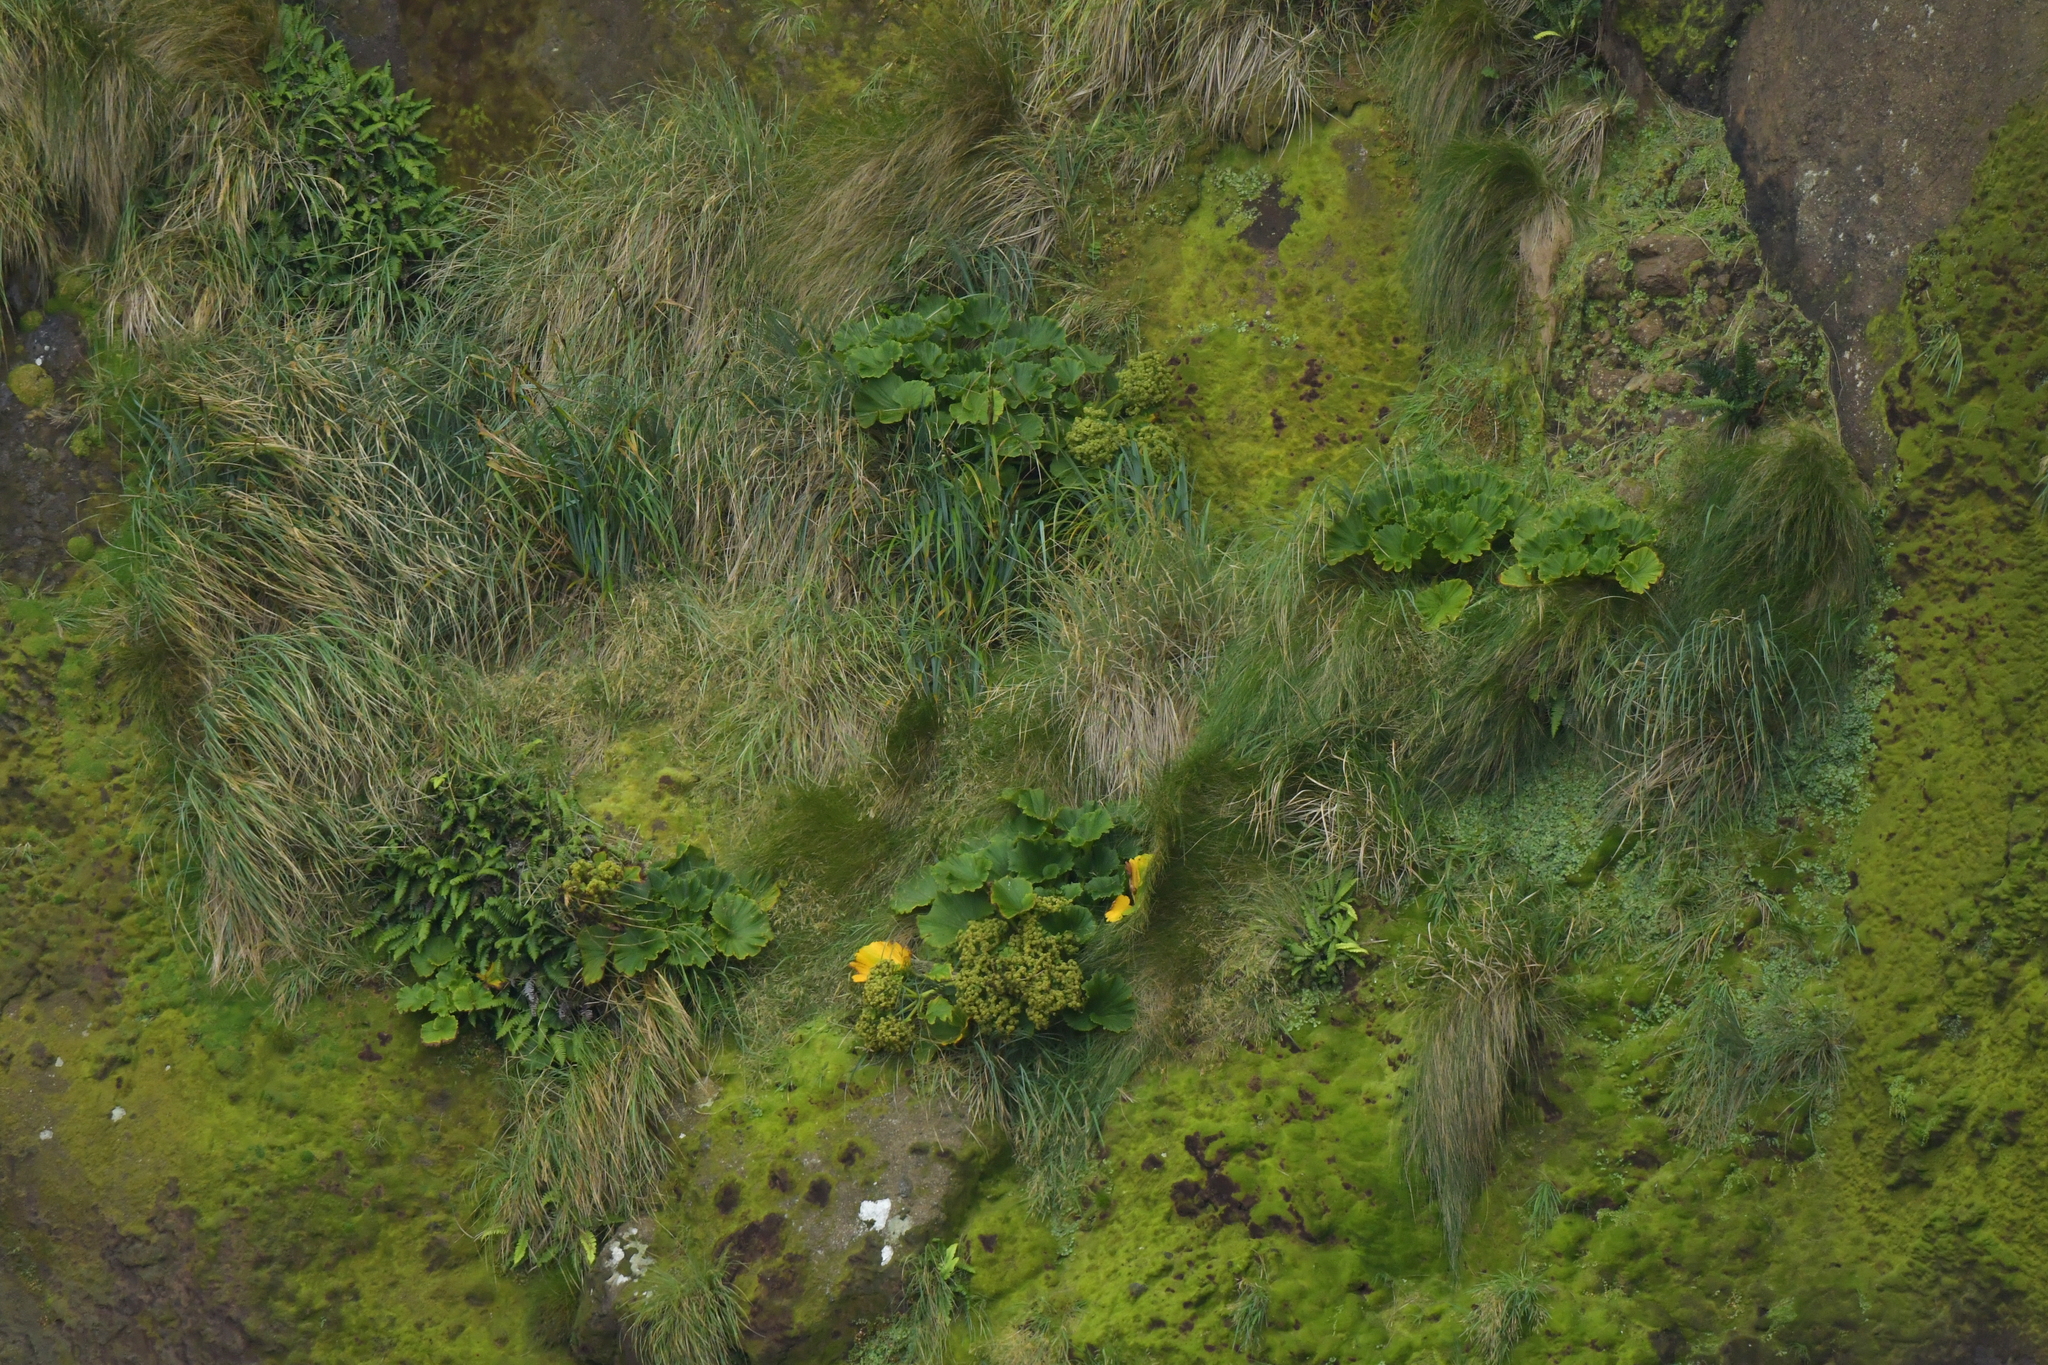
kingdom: Plantae
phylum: Tracheophyta
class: Magnoliopsida
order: Apiales
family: Apiaceae
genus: Azorella
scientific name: Azorella polaris
